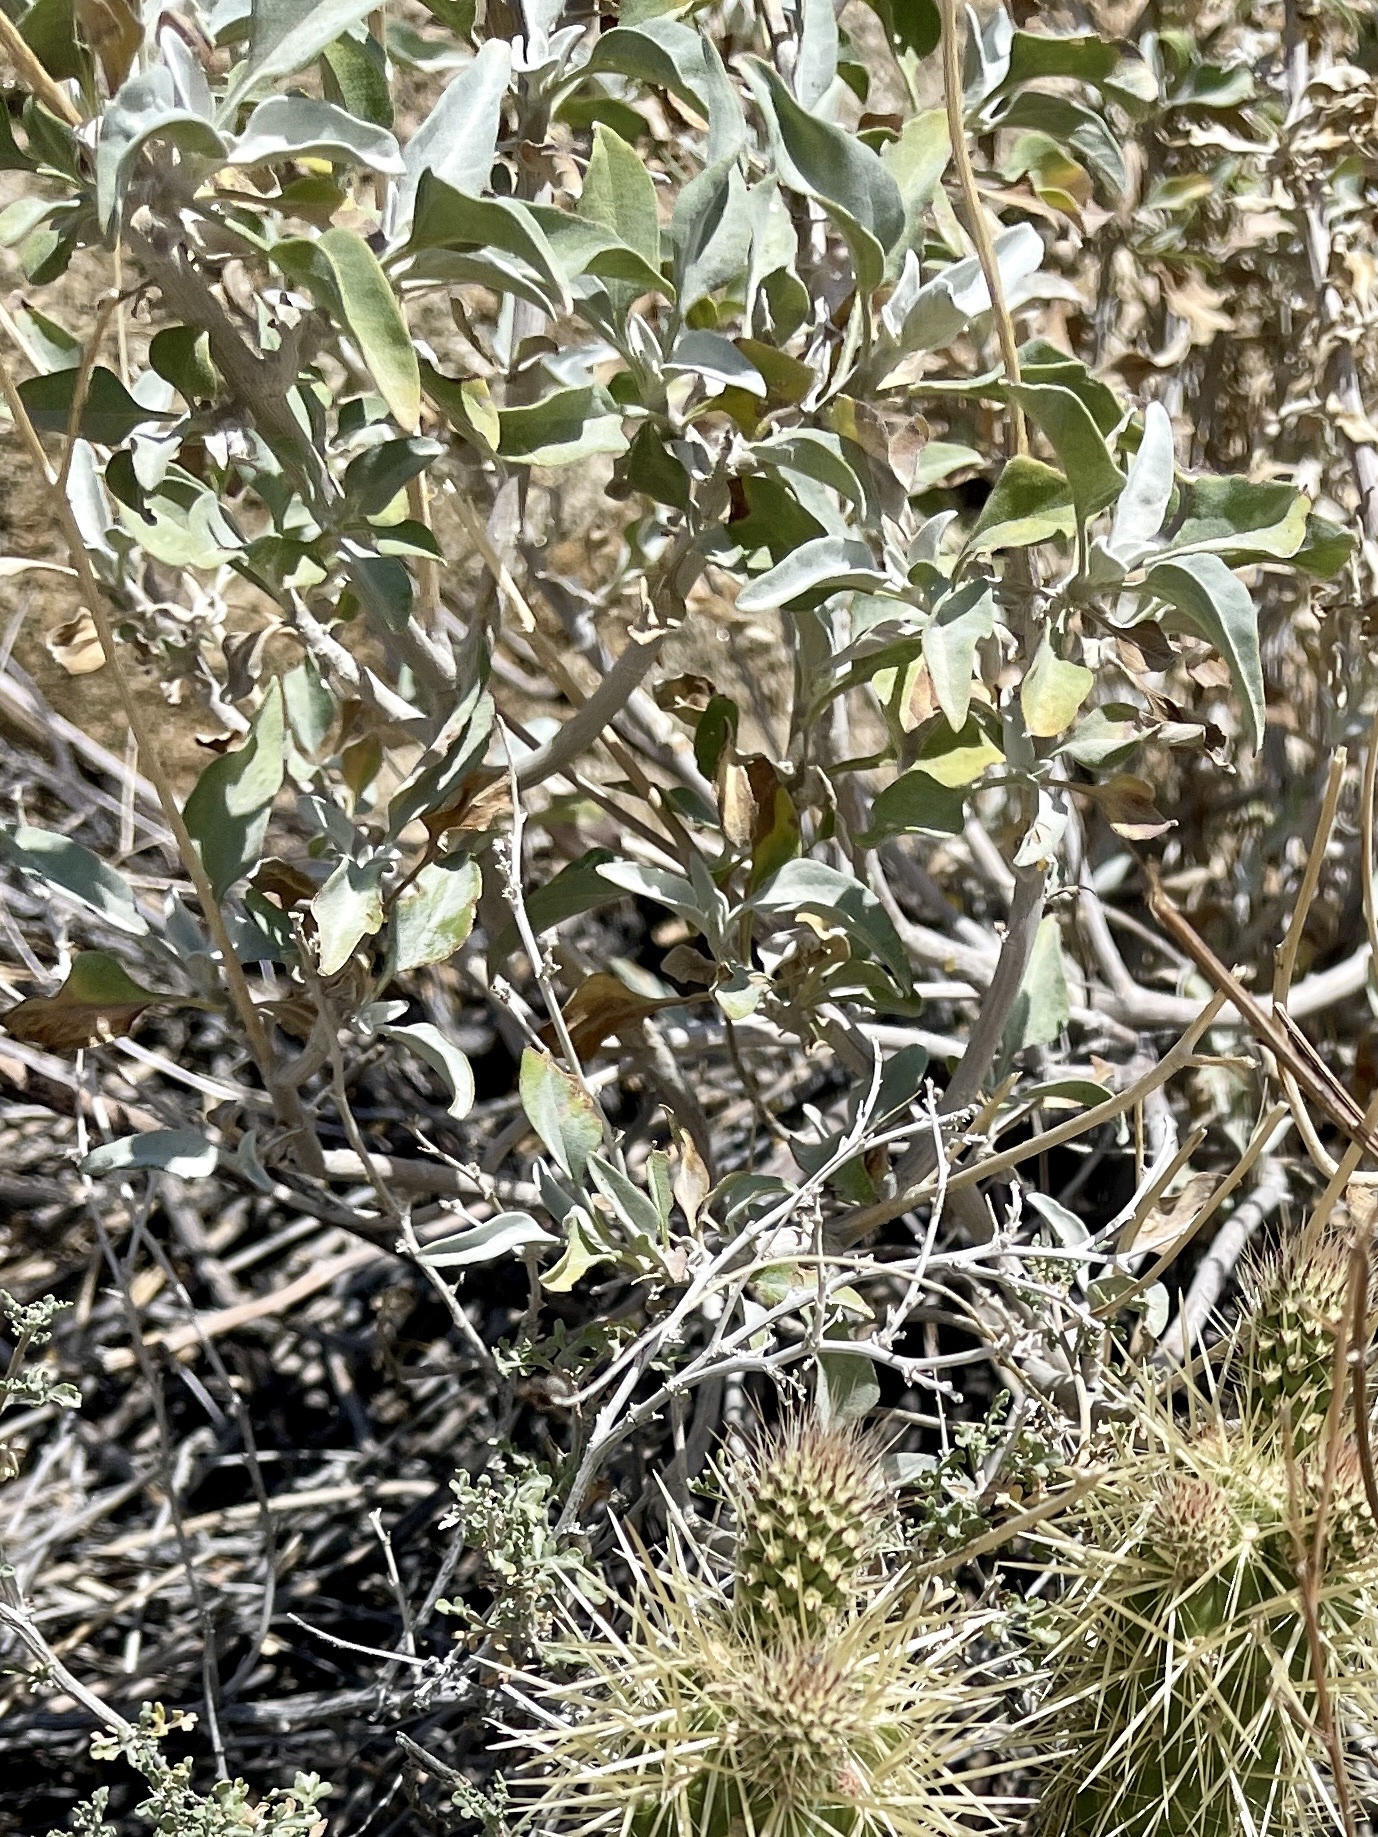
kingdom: Plantae
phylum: Tracheophyta
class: Magnoliopsida
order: Asterales
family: Asteraceae
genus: Encelia
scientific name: Encelia farinosa
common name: Brittlebush
